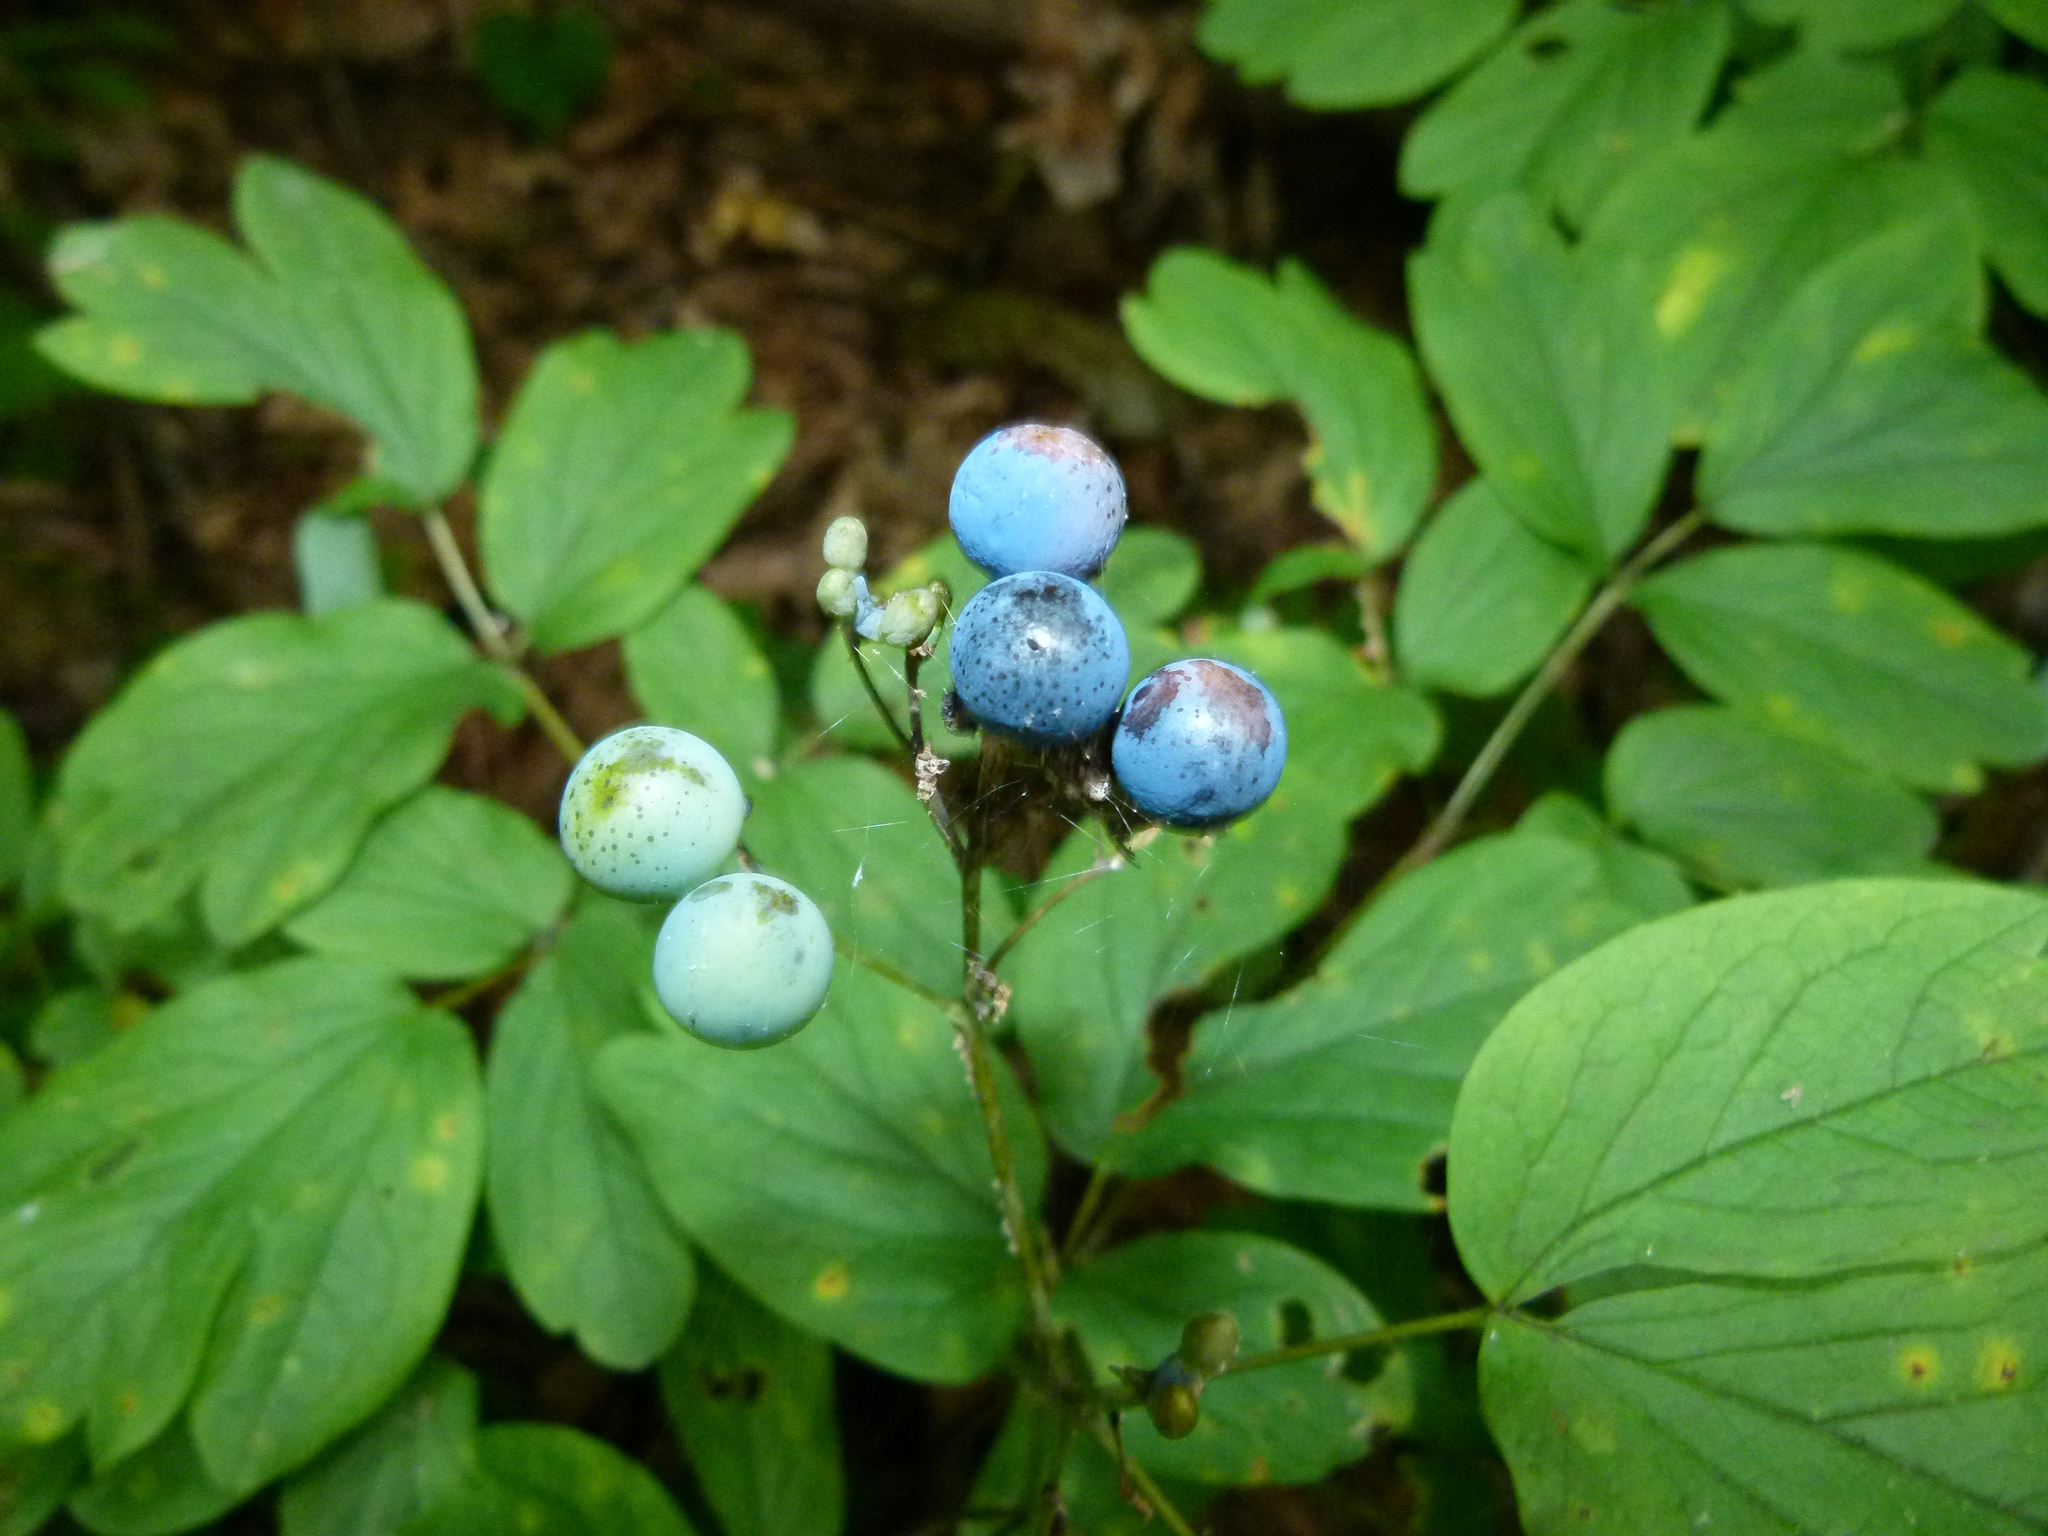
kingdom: Plantae
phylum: Tracheophyta
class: Magnoliopsida
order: Ranunculales
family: Berberidaceae
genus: Caulophyllum
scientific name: Caulophyllum thalictroides
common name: Blue cohosh
